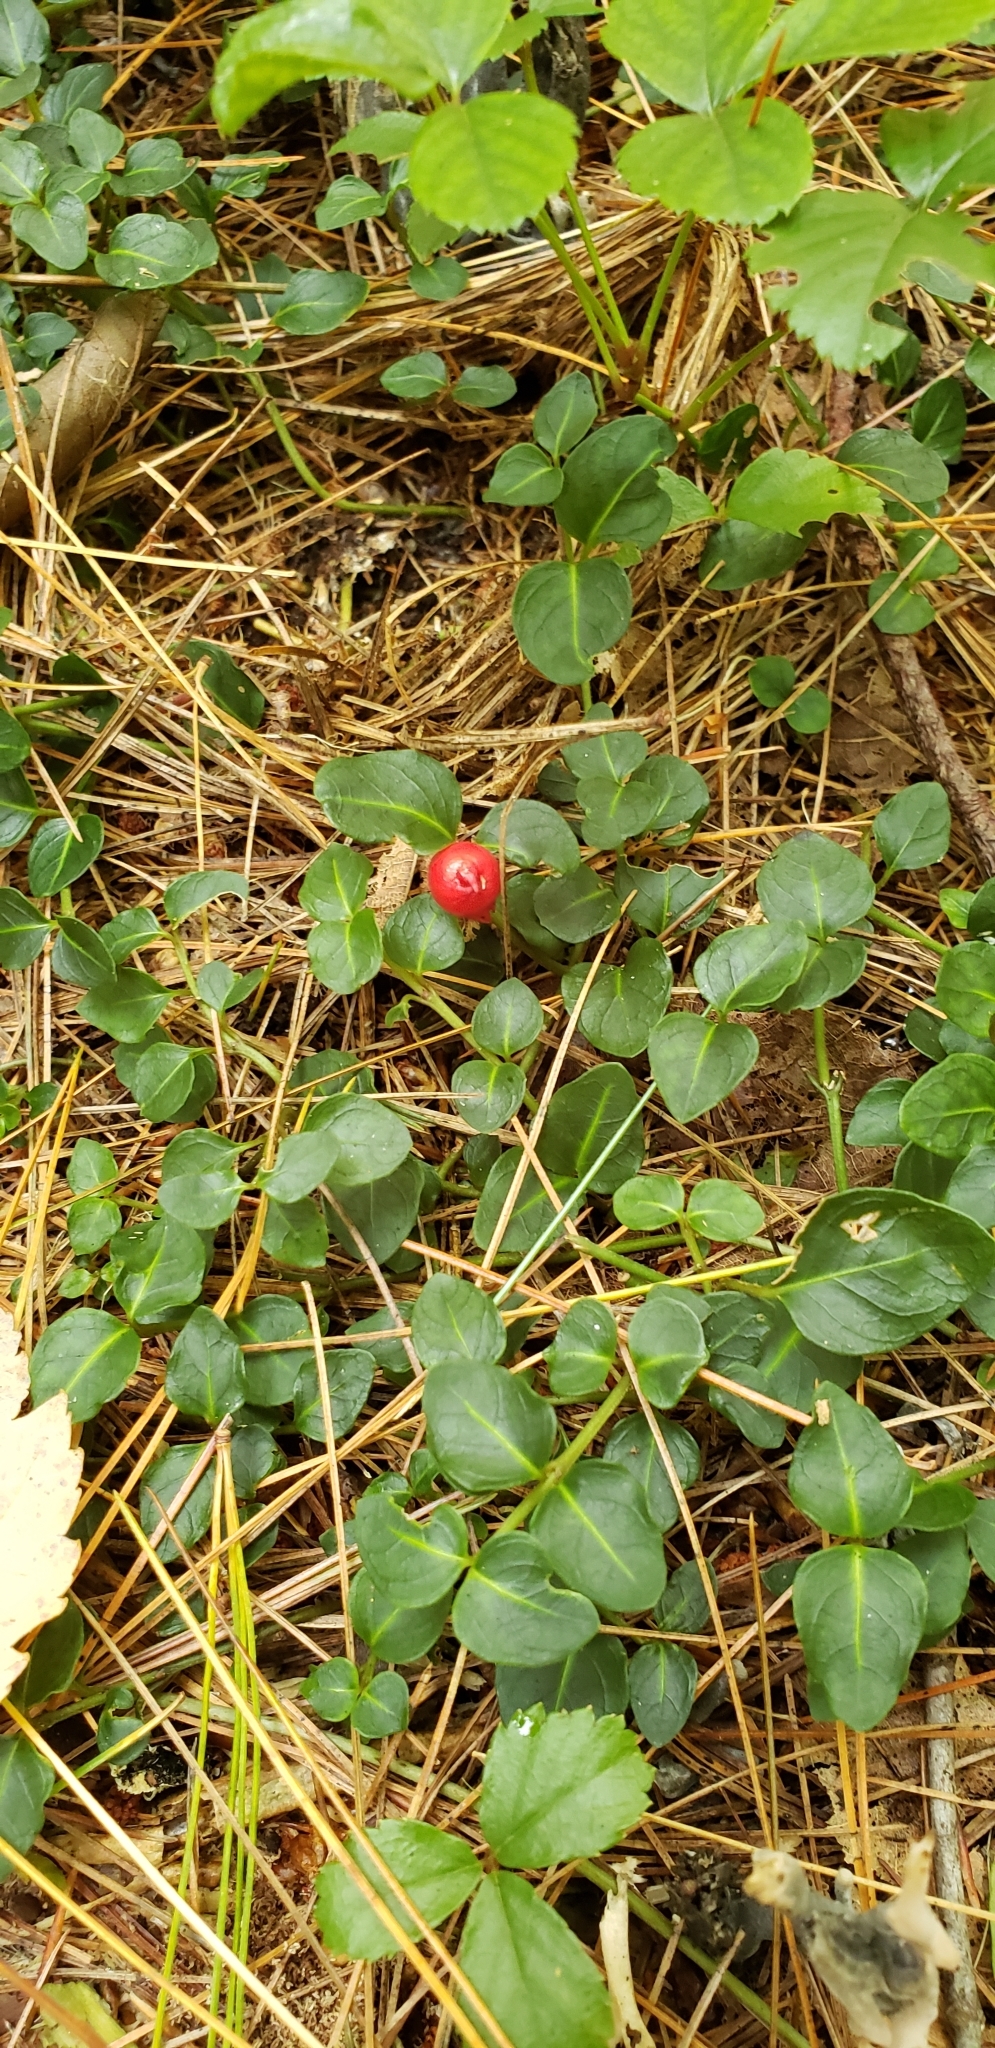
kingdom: Plantae
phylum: Tracheophyta
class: Magnoliopsida
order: Gentianales
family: Rubiaceae
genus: Mitchella
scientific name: Mitchella repens
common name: Partridge-berry
